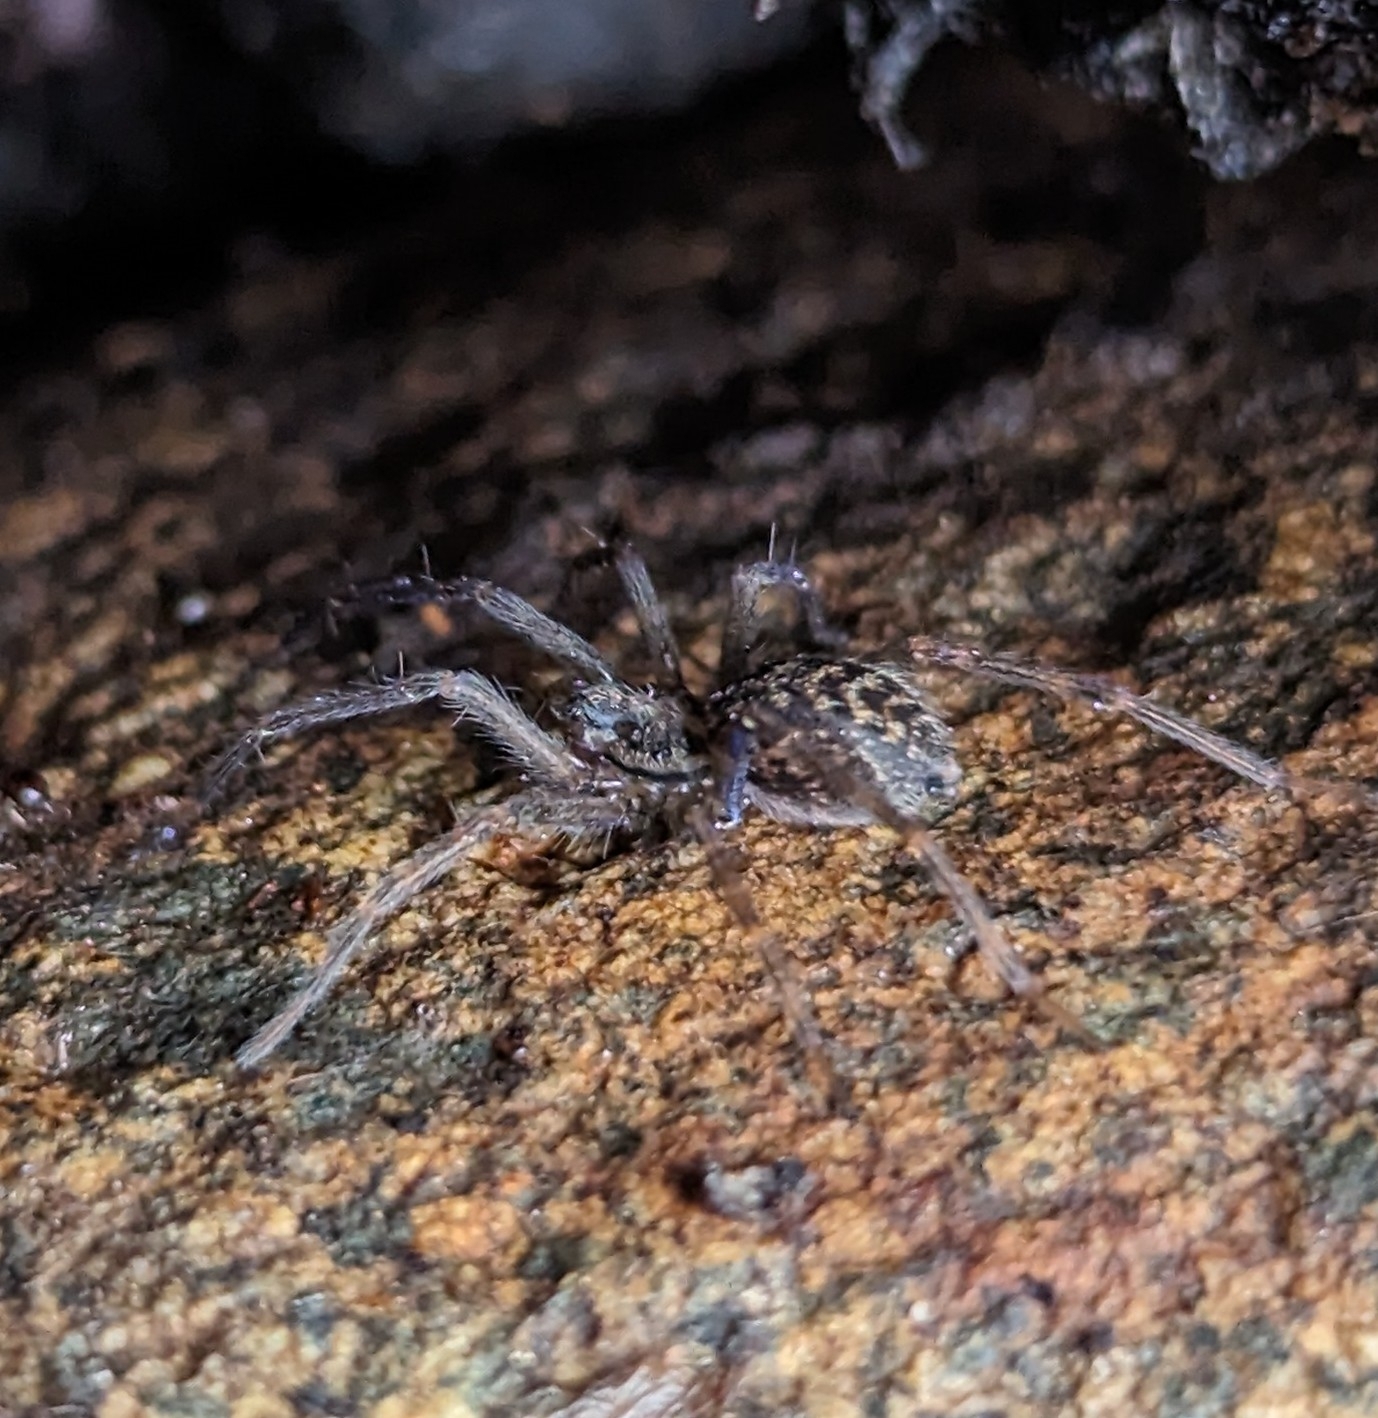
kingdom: Animalia
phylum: Arthropoda
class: Arachnida
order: Araneae
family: Agelenidae
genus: Eratigena
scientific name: Eratigena duellica
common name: Giant house spider
